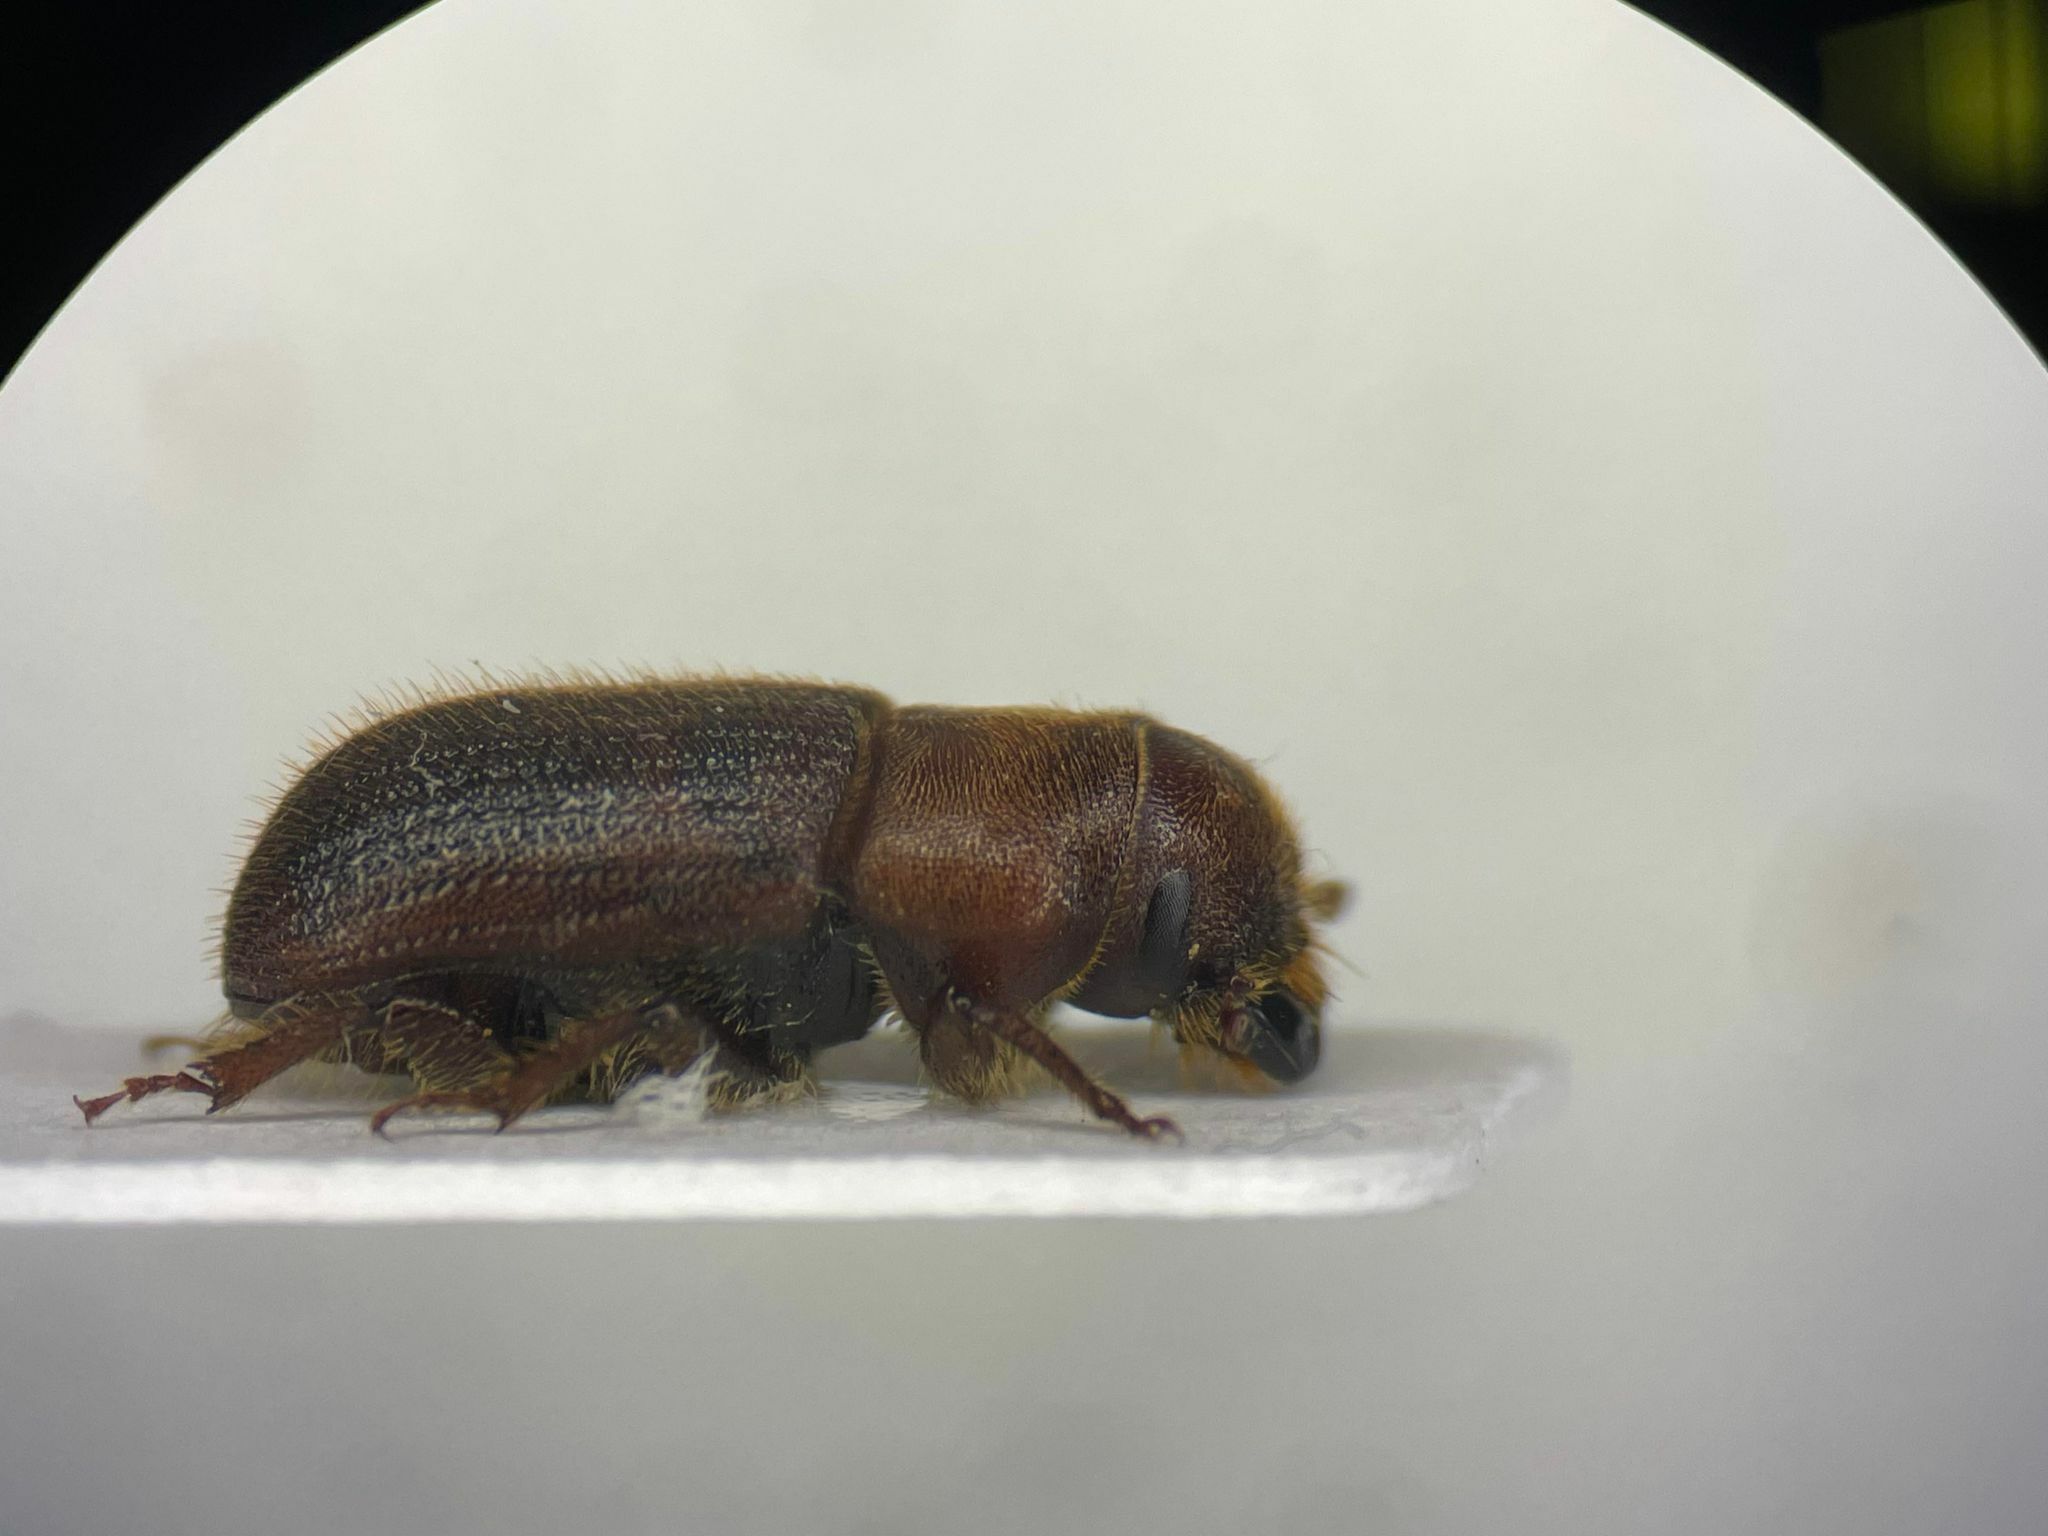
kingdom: Animalia
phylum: Arthropoda
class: Insecta
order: Coleoptera
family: Curculionidae
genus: Dendroctonus
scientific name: Dendroctonus valens
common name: Red turpentine beetle
